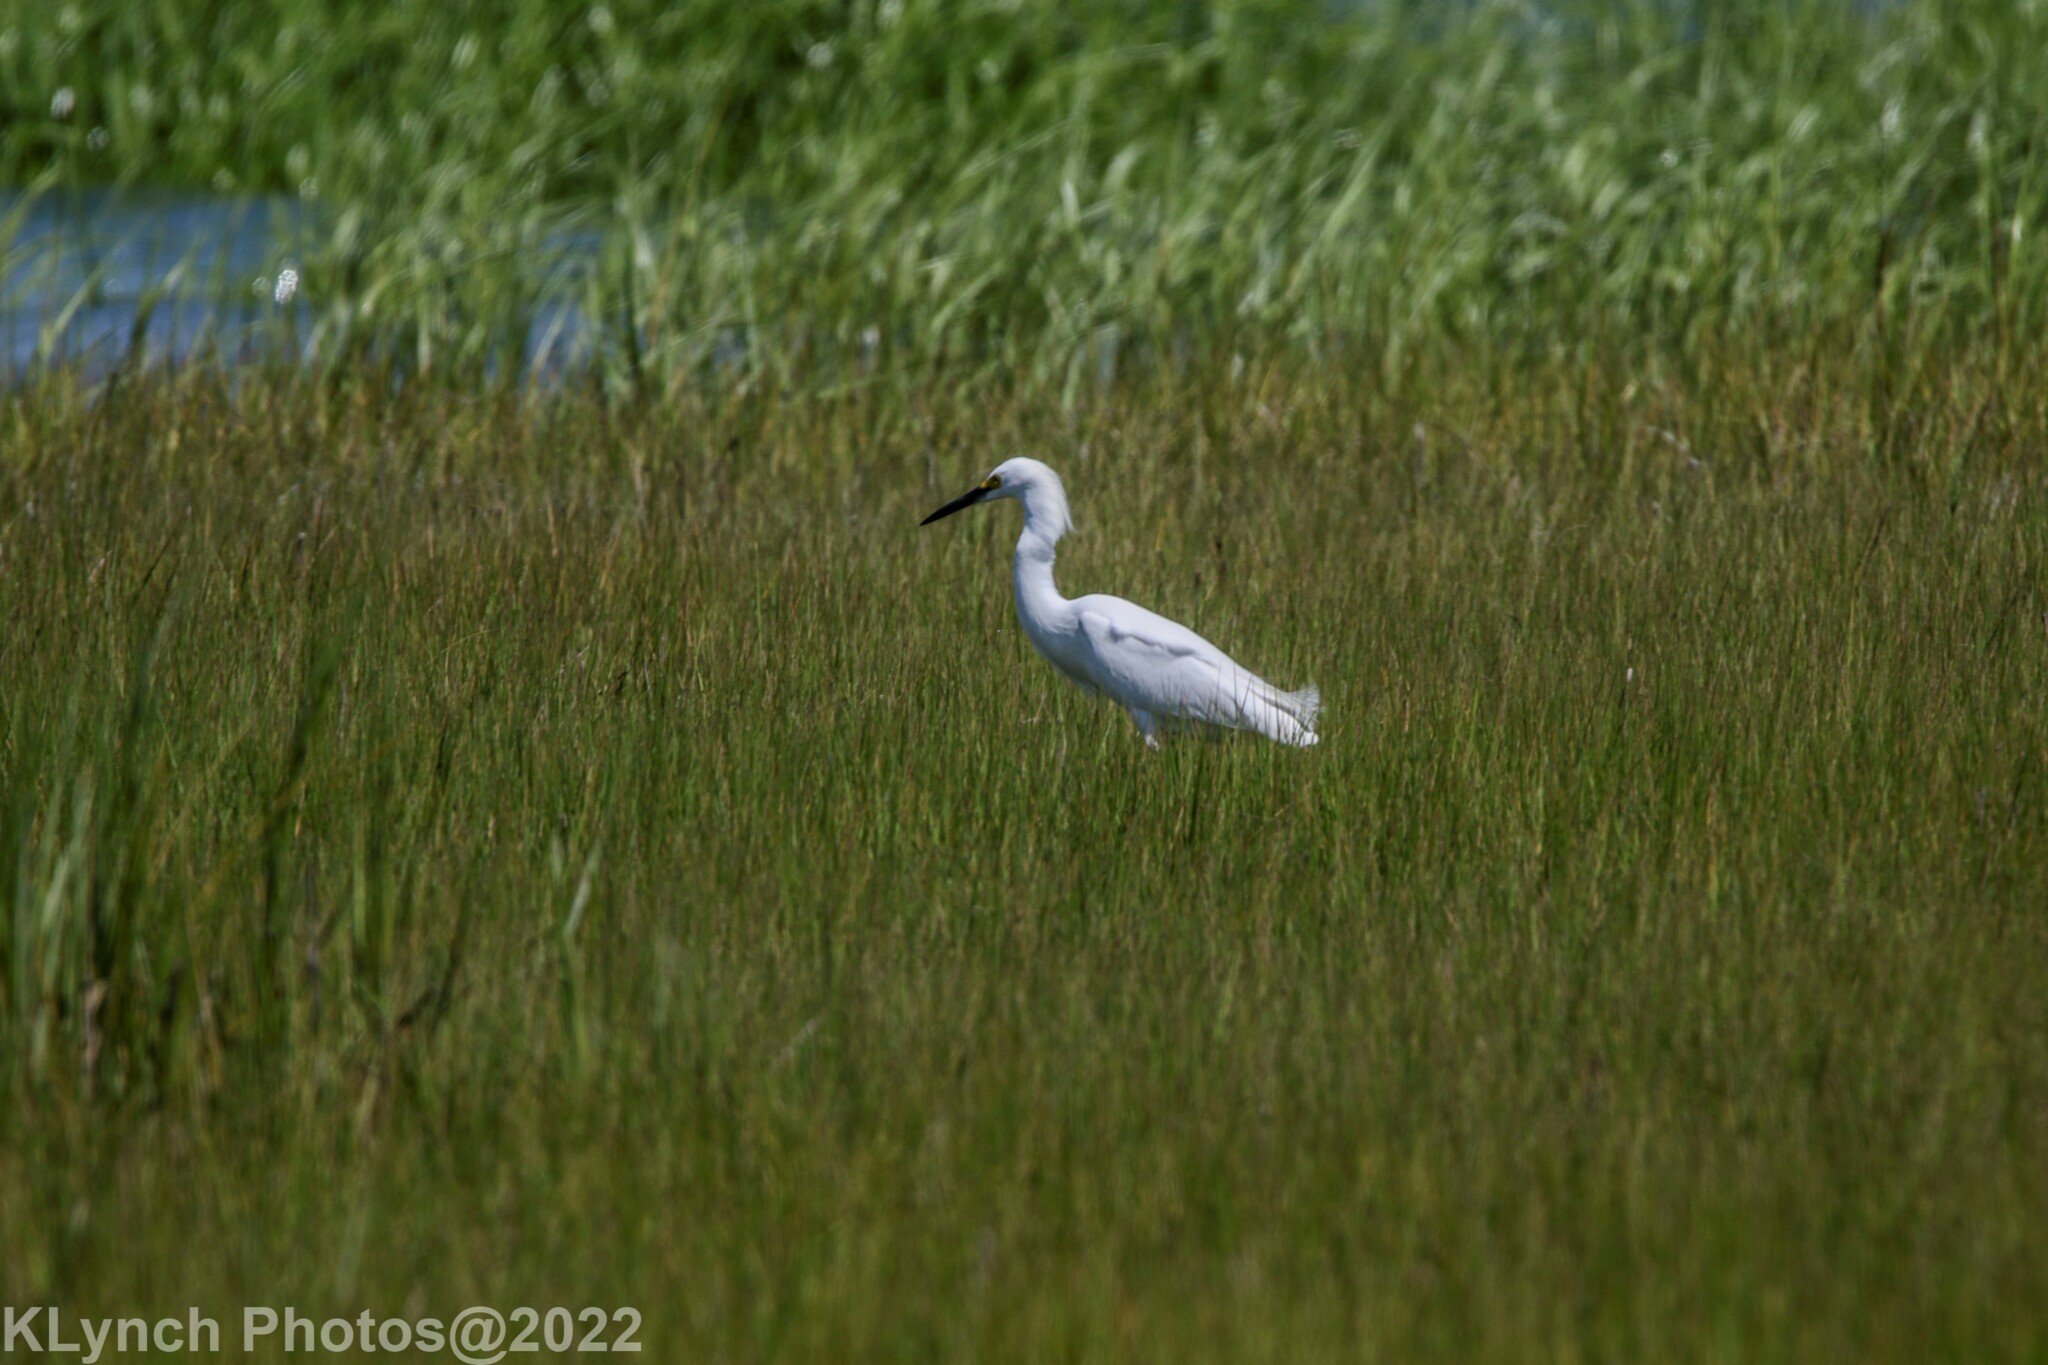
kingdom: Animalia
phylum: Chordata
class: Aves
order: Pelecaniformes
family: Ardeidae
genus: Egretta
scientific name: Egretta thula
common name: Snowy egret
